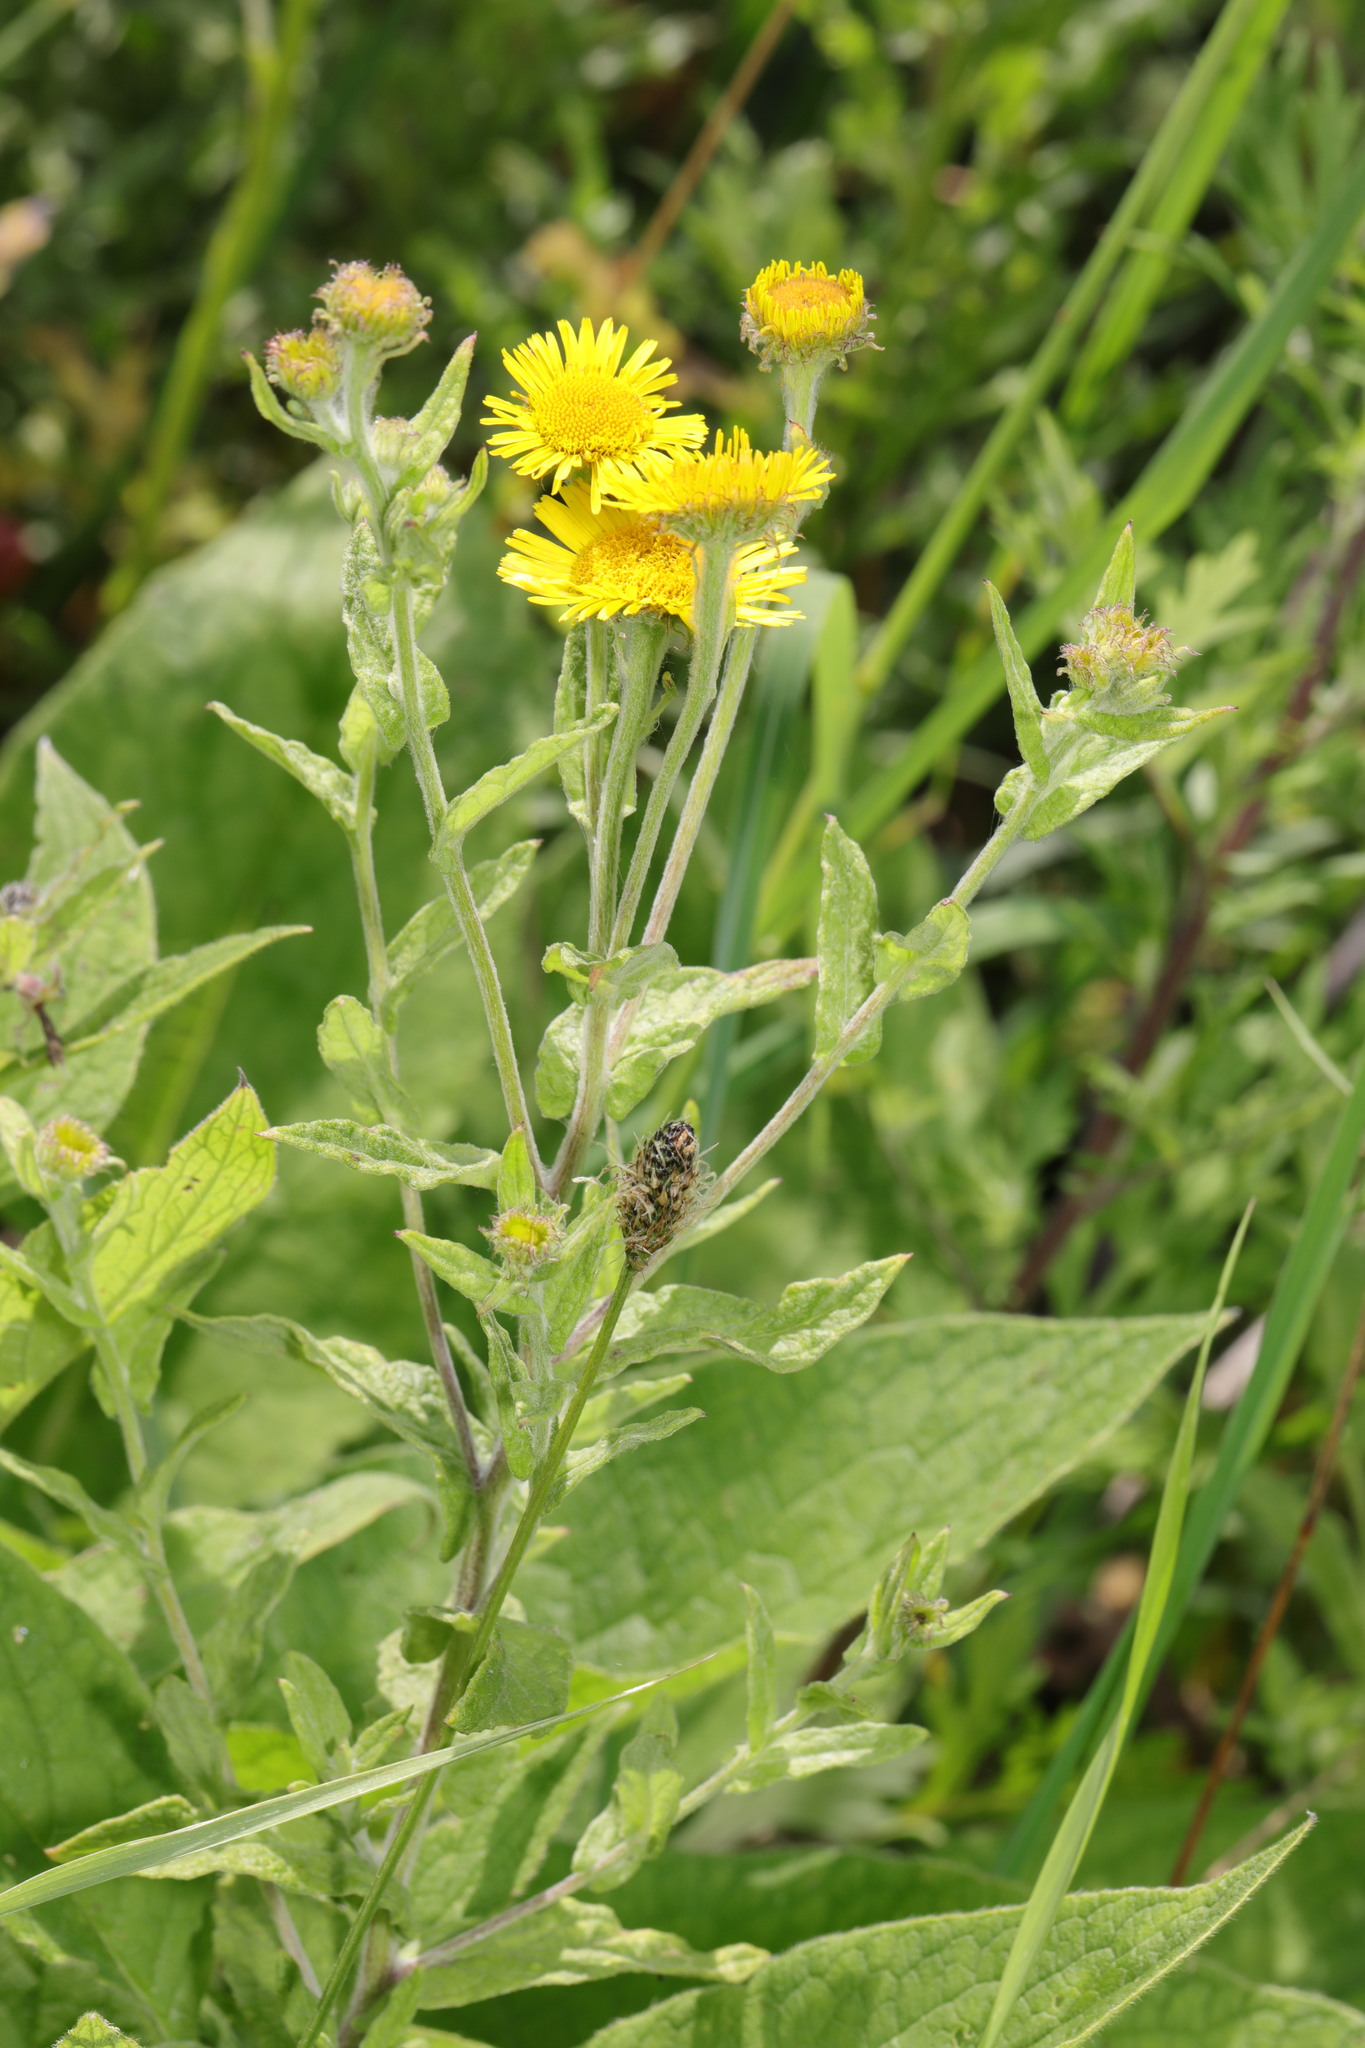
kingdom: Plantae
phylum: Tracheophyta
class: Magnoliopsida
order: Asterales
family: Asteraceae
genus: Pulicaria
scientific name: Pulicaria dysenterica
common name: Common fleabane
